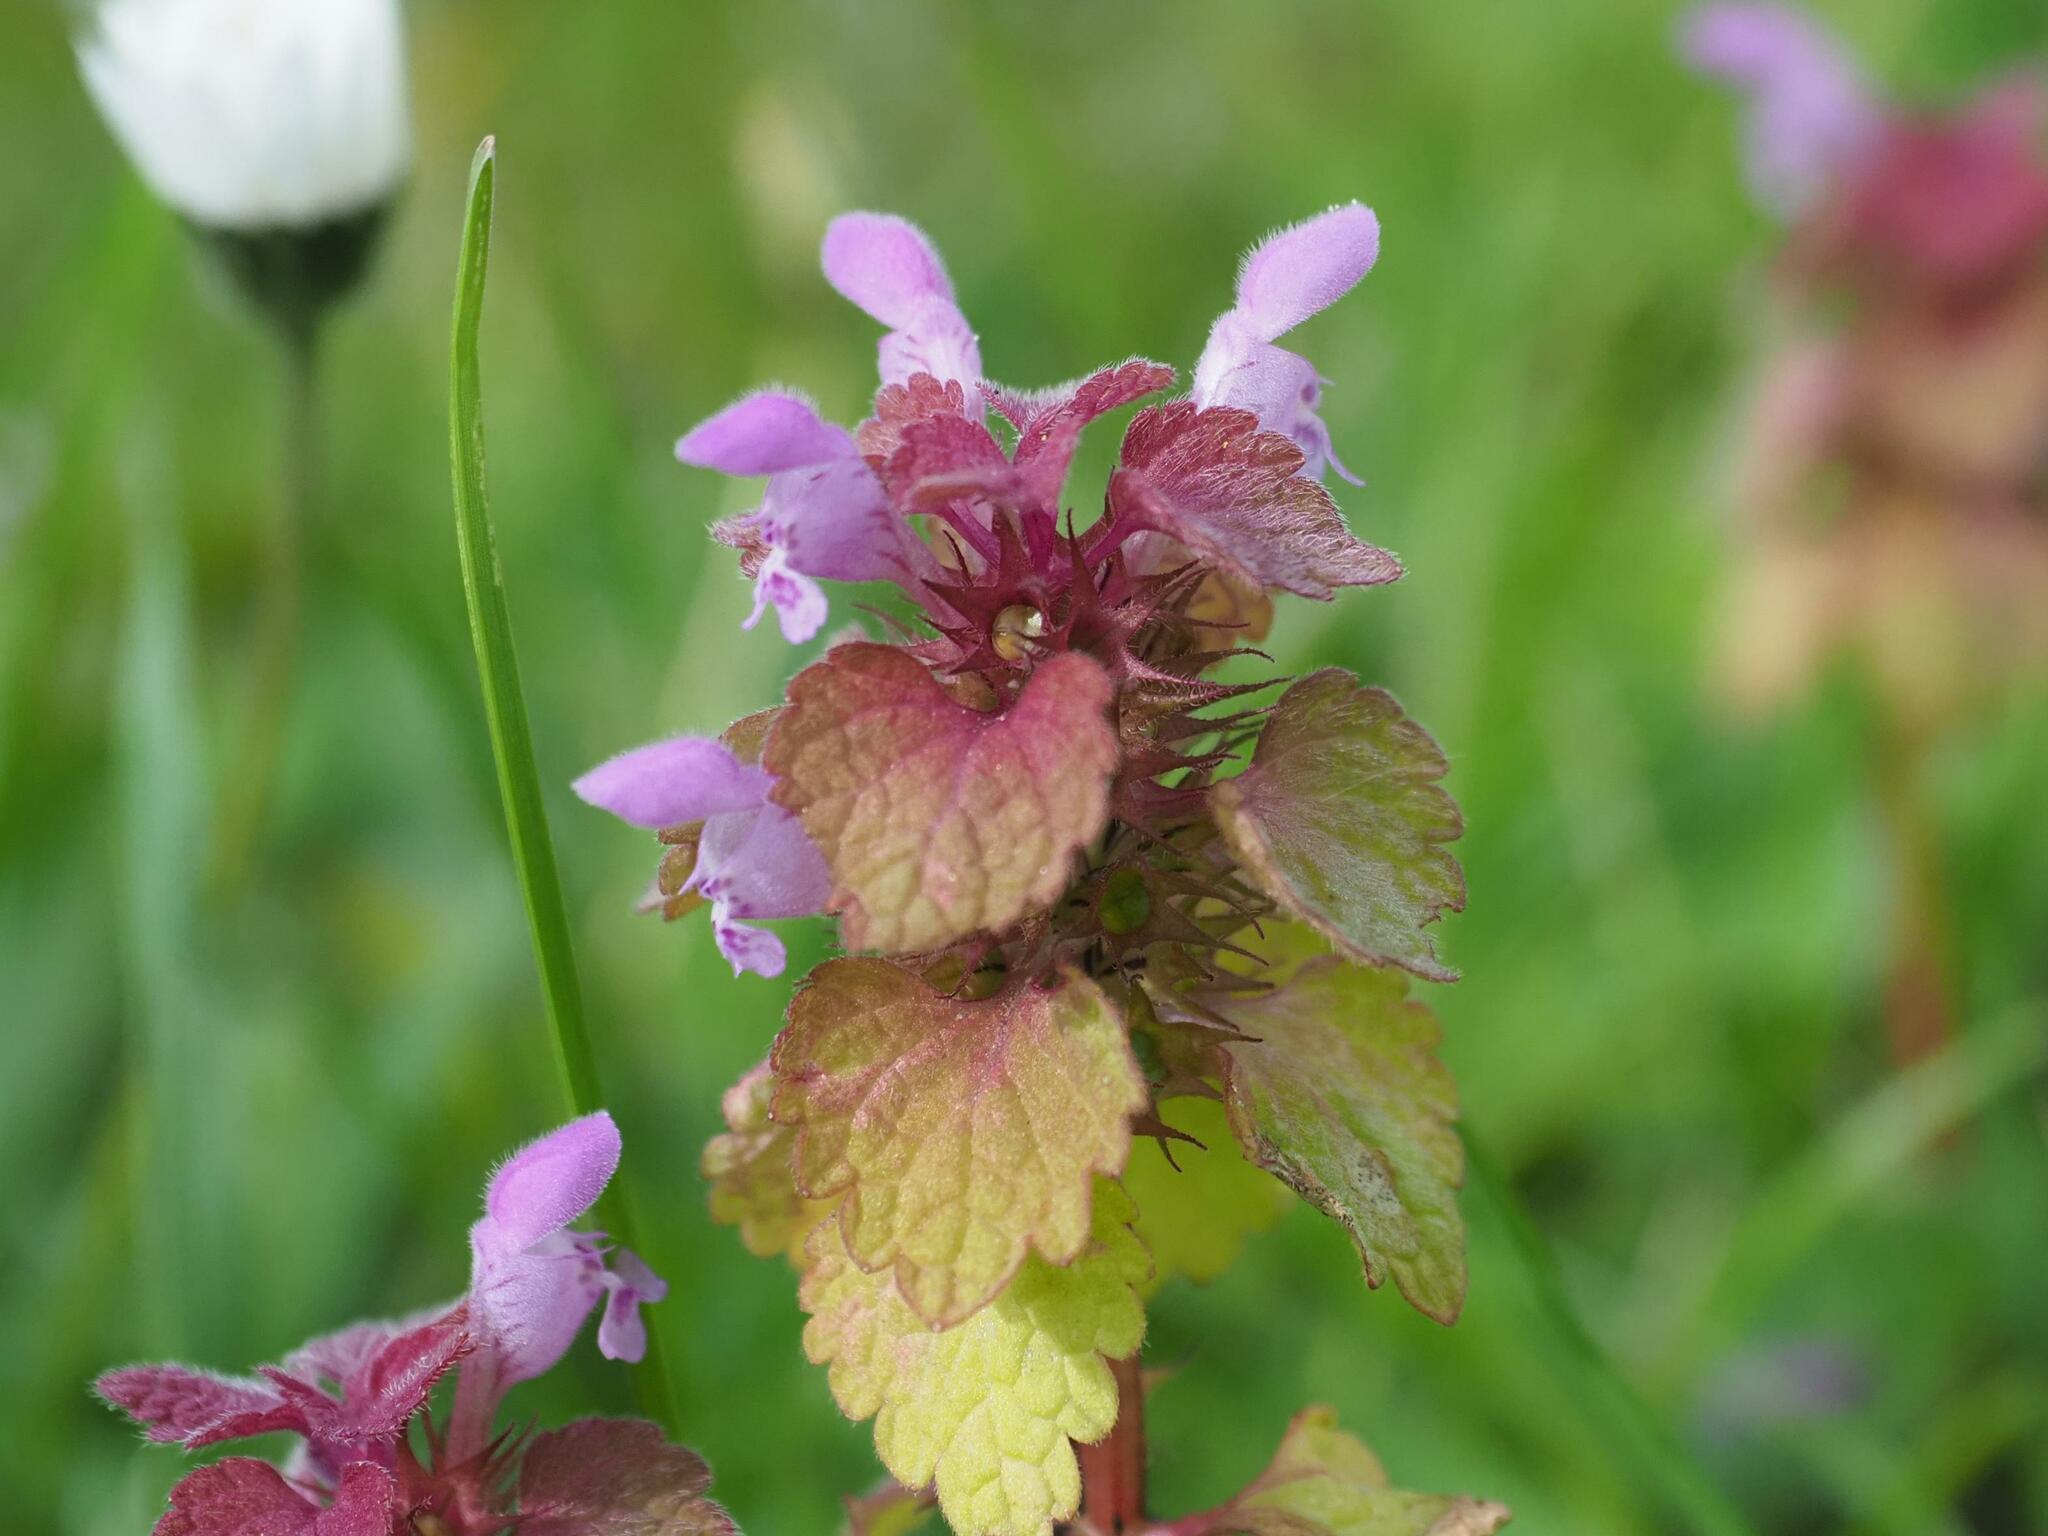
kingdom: Plantae
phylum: Tracheophyta
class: Magnoliopsida
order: Lamiales
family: Lamiaceae
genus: Lamium
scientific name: Lamium purpureum
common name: Red dead-nettle
